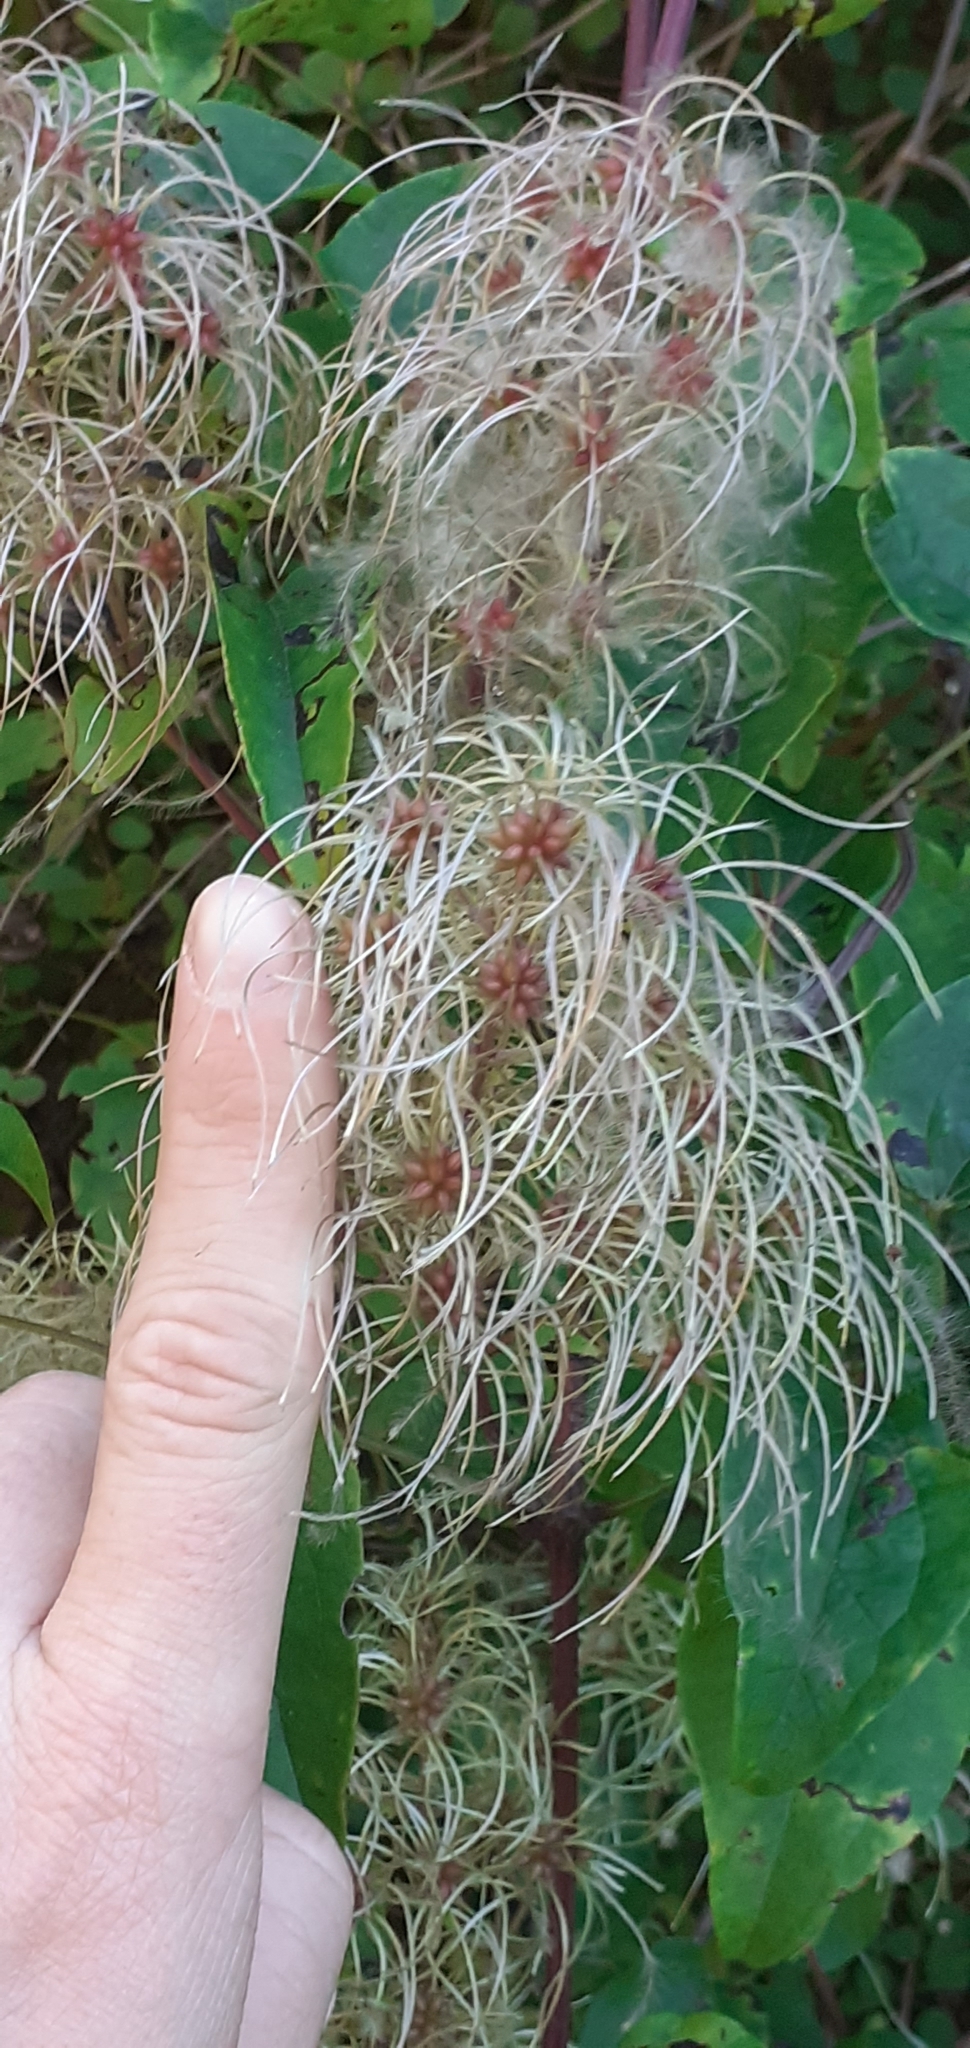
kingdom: Plantae
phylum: Tracheophyta
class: Magnoliopsida
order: Ranunculales
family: Ranunculaceae
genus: Clematis
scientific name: Clematis vitalba
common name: Evergreen clematis
